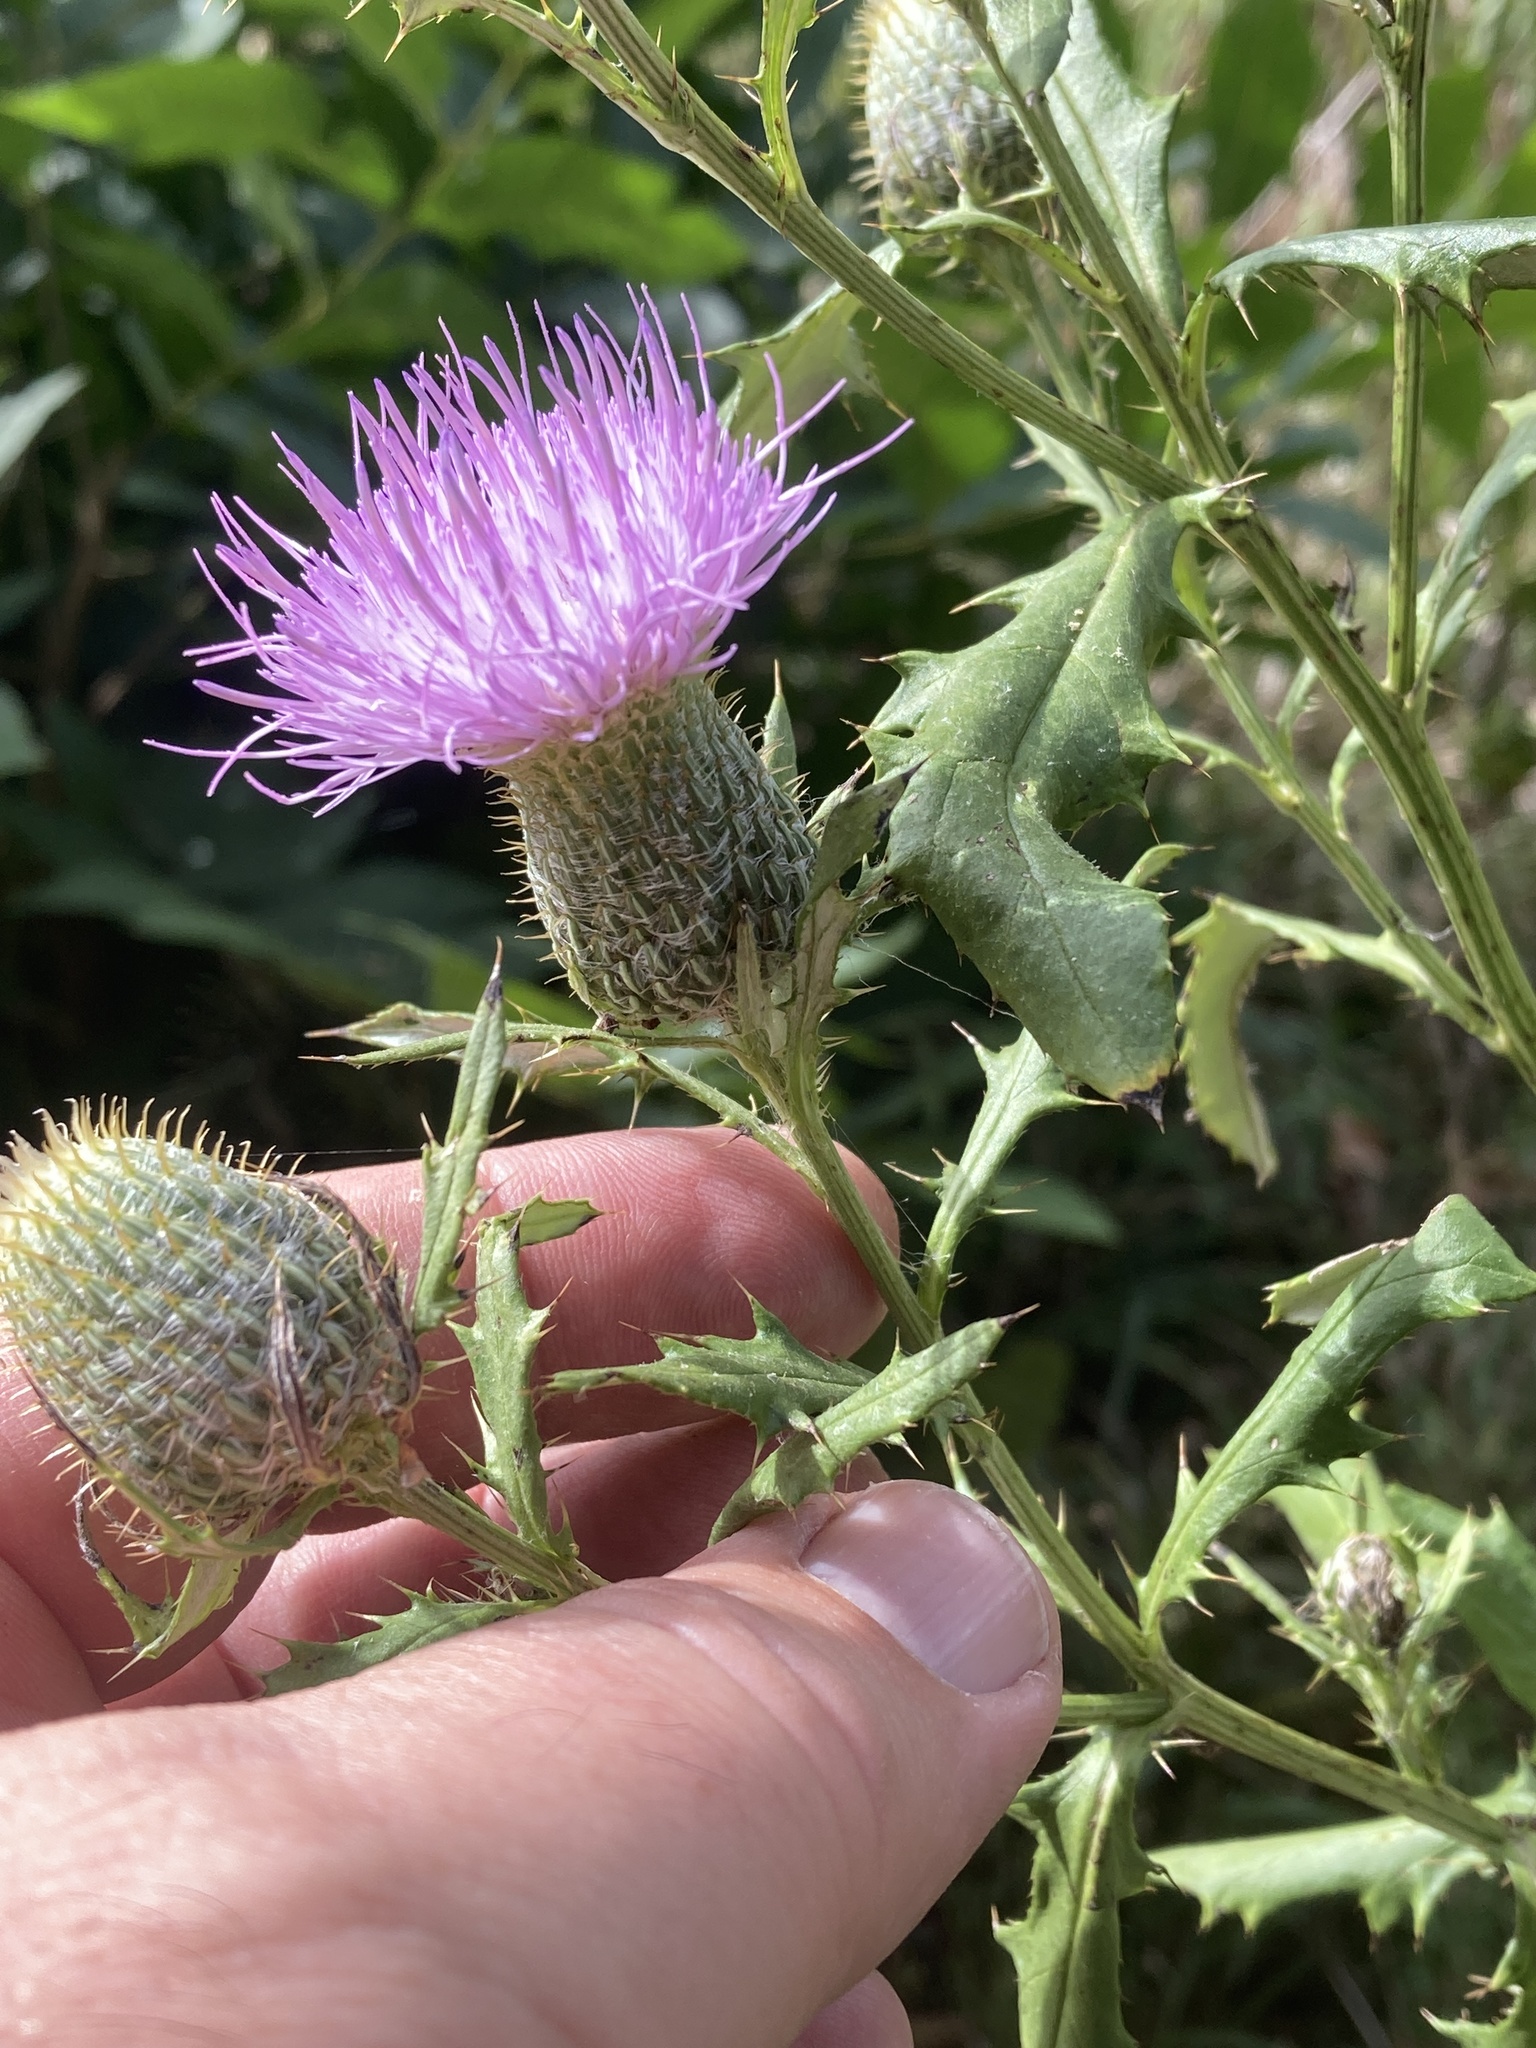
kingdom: Plantae
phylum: Tracheophyta
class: Magnoliopsida
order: Asterales
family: Asteraceae
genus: Cirsium
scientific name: Cirsium altissimum
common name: Roadside thistle
